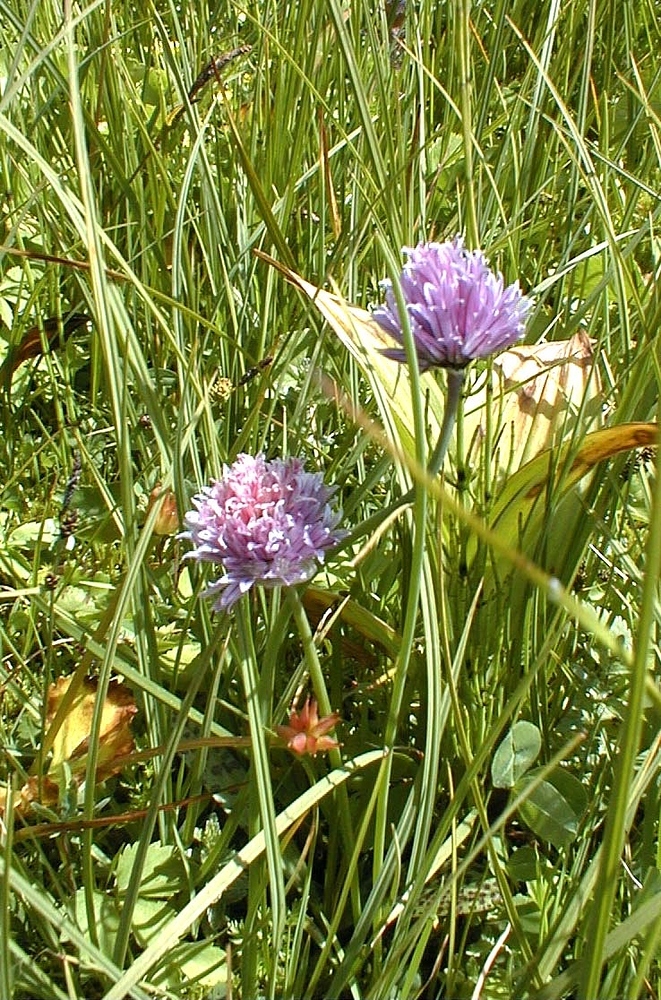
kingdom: Plantae
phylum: Tracheophyta
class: Liliopsida
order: Asparagales
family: Amaryllidaceae
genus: Allium
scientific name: Allium schoenoprasum
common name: Chives
